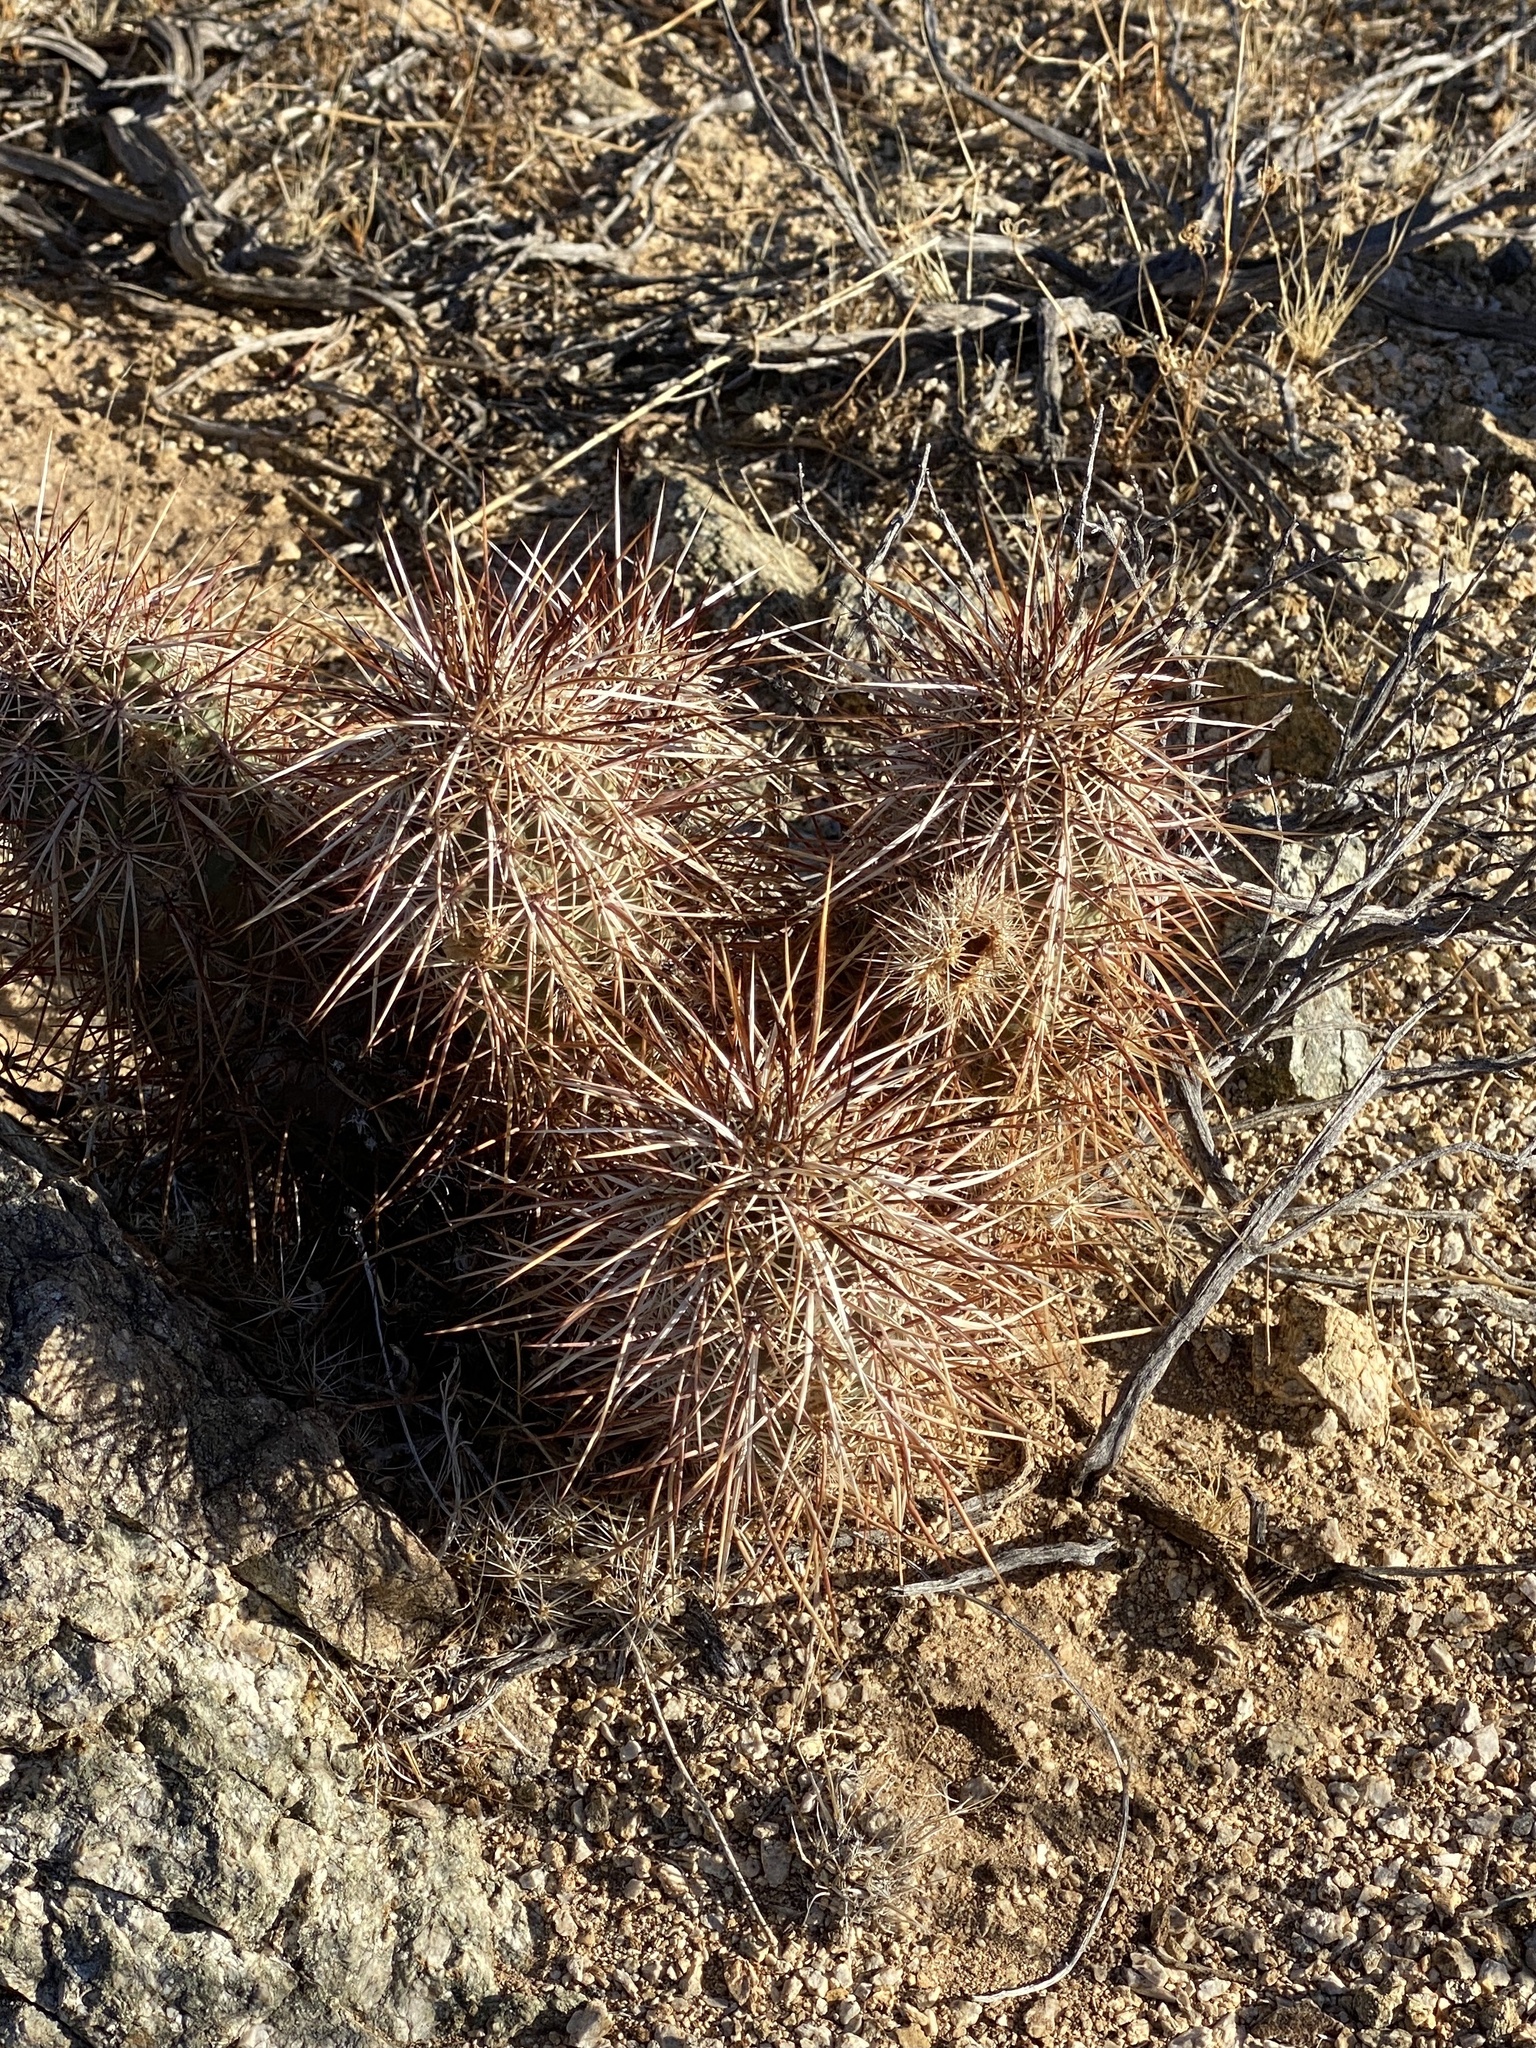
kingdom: Plantae
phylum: Tracheophyta
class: Magnoliopsida
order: Caryophyllales
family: Cactaceae
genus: Echinocereus
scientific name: Echinocereus engelmannii
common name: Engelmann's hedgehog cactus
